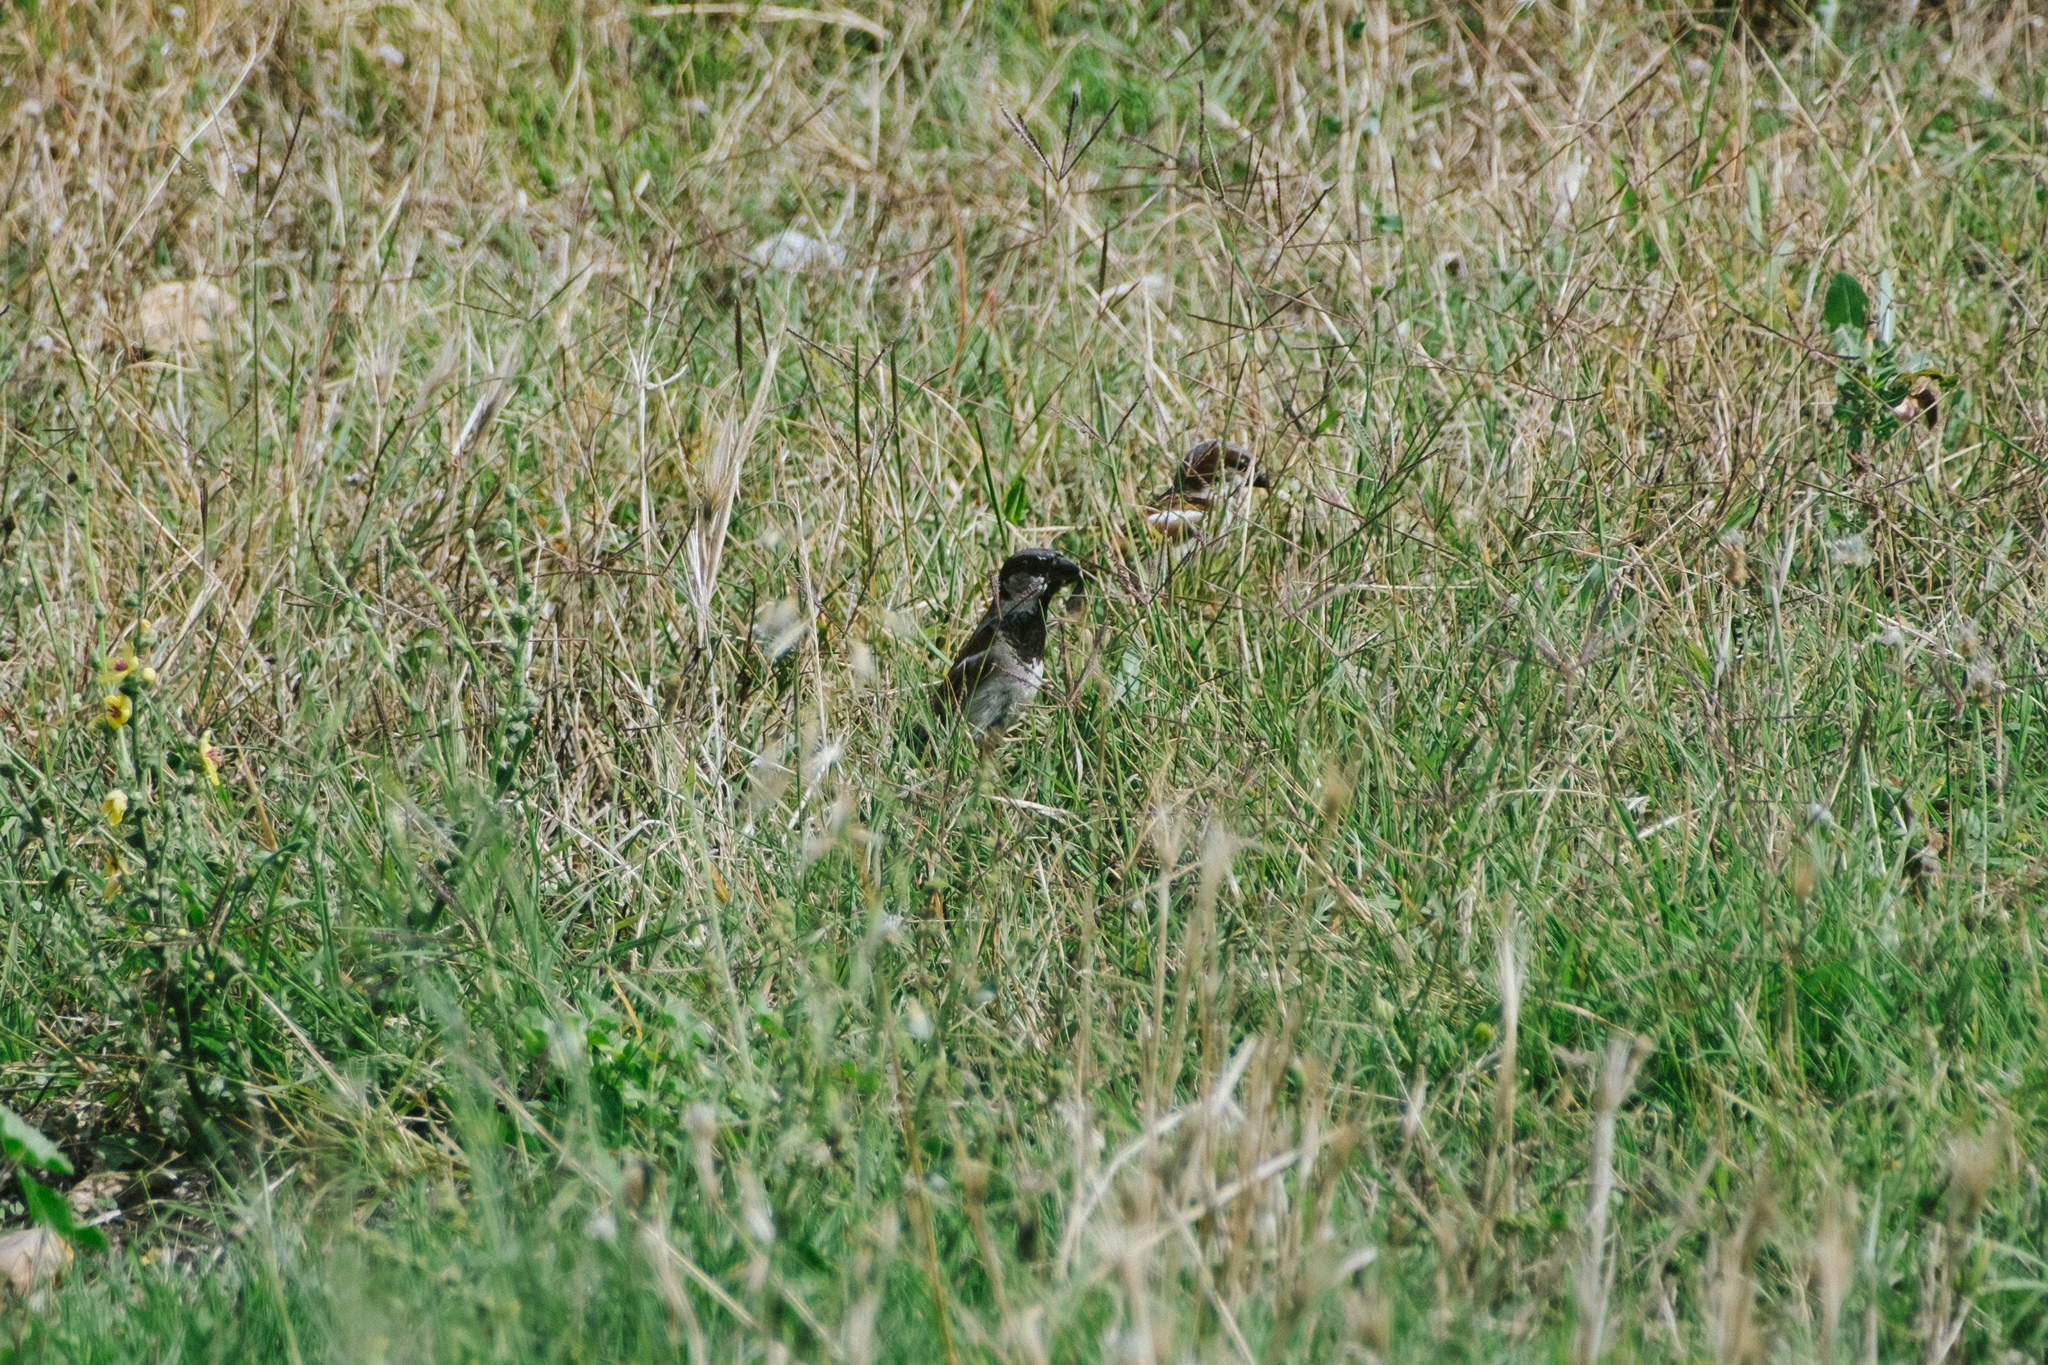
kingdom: Animalia
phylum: Chordata
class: Aves
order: Passeriformes
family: Passeridae
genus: Passer
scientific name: Passer domesticus
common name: House sparrow
